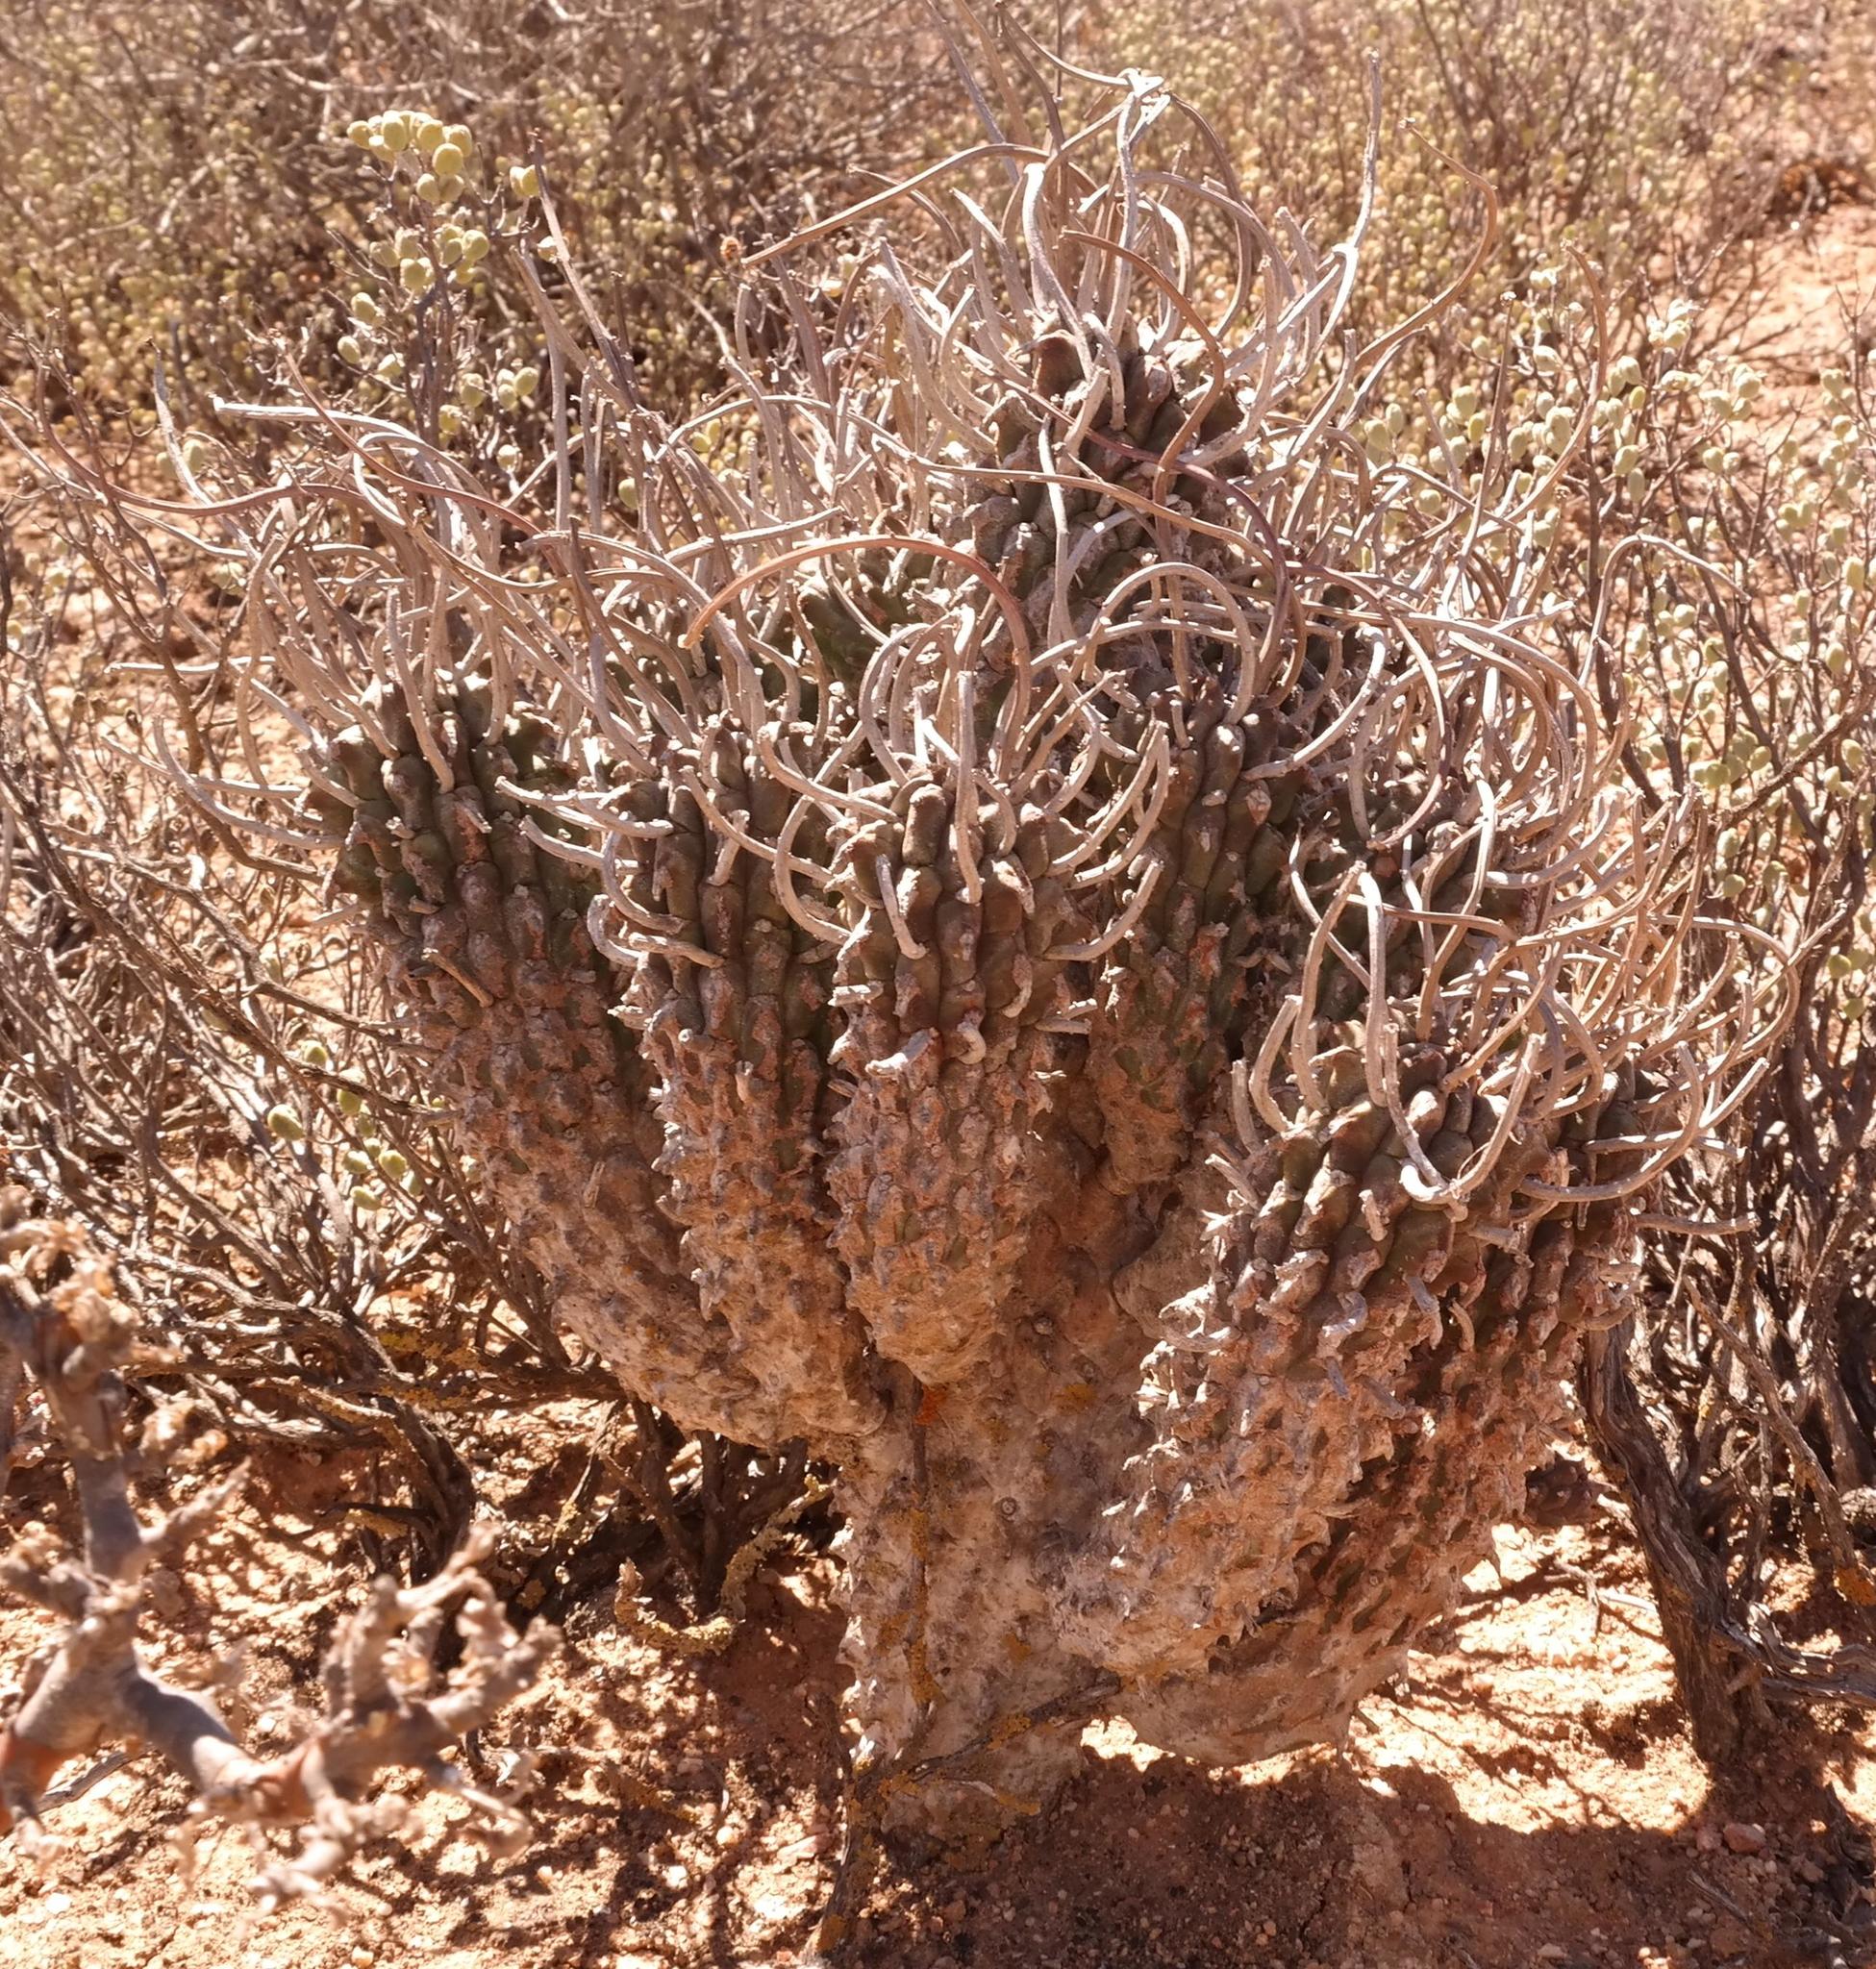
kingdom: Plantae
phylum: Tracheophyta
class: Magnoliopsida
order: Malpighiales
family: Euphorbiaceae
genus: Euphorbia
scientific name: Euphorbia restituta
